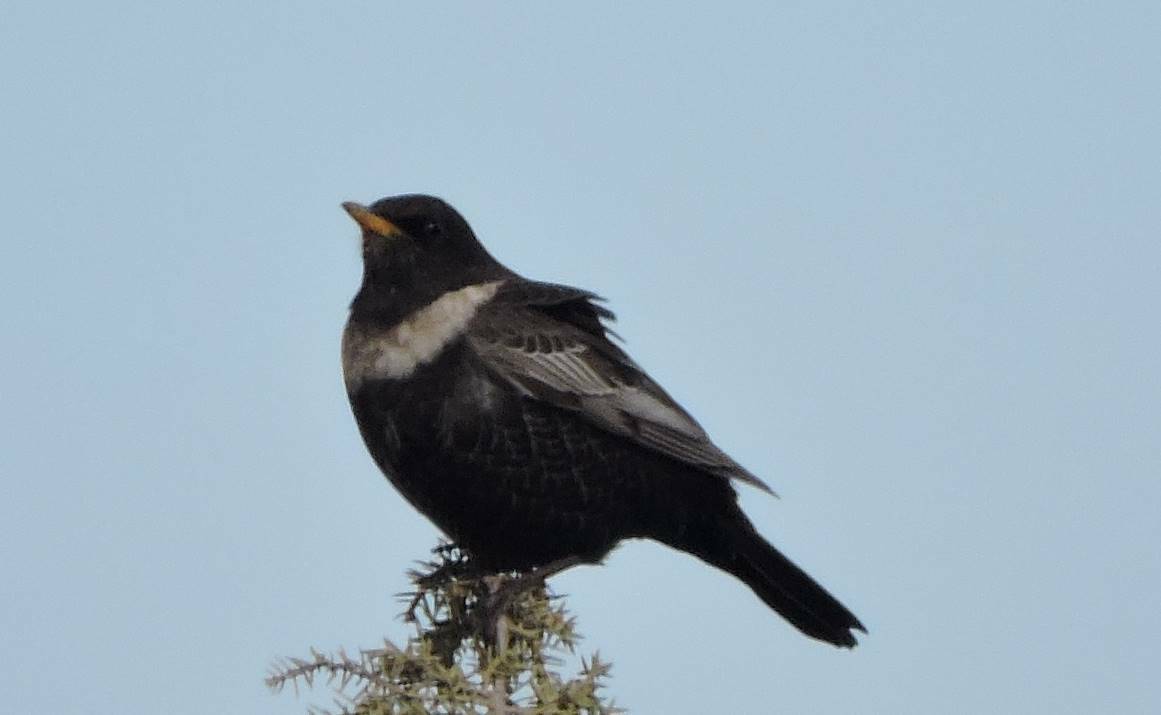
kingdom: Animalia
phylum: Chordata
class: Aves
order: Passeriformes
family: Turdidae
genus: Turdus
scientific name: Turdus torquatus
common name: Ring ouzel
